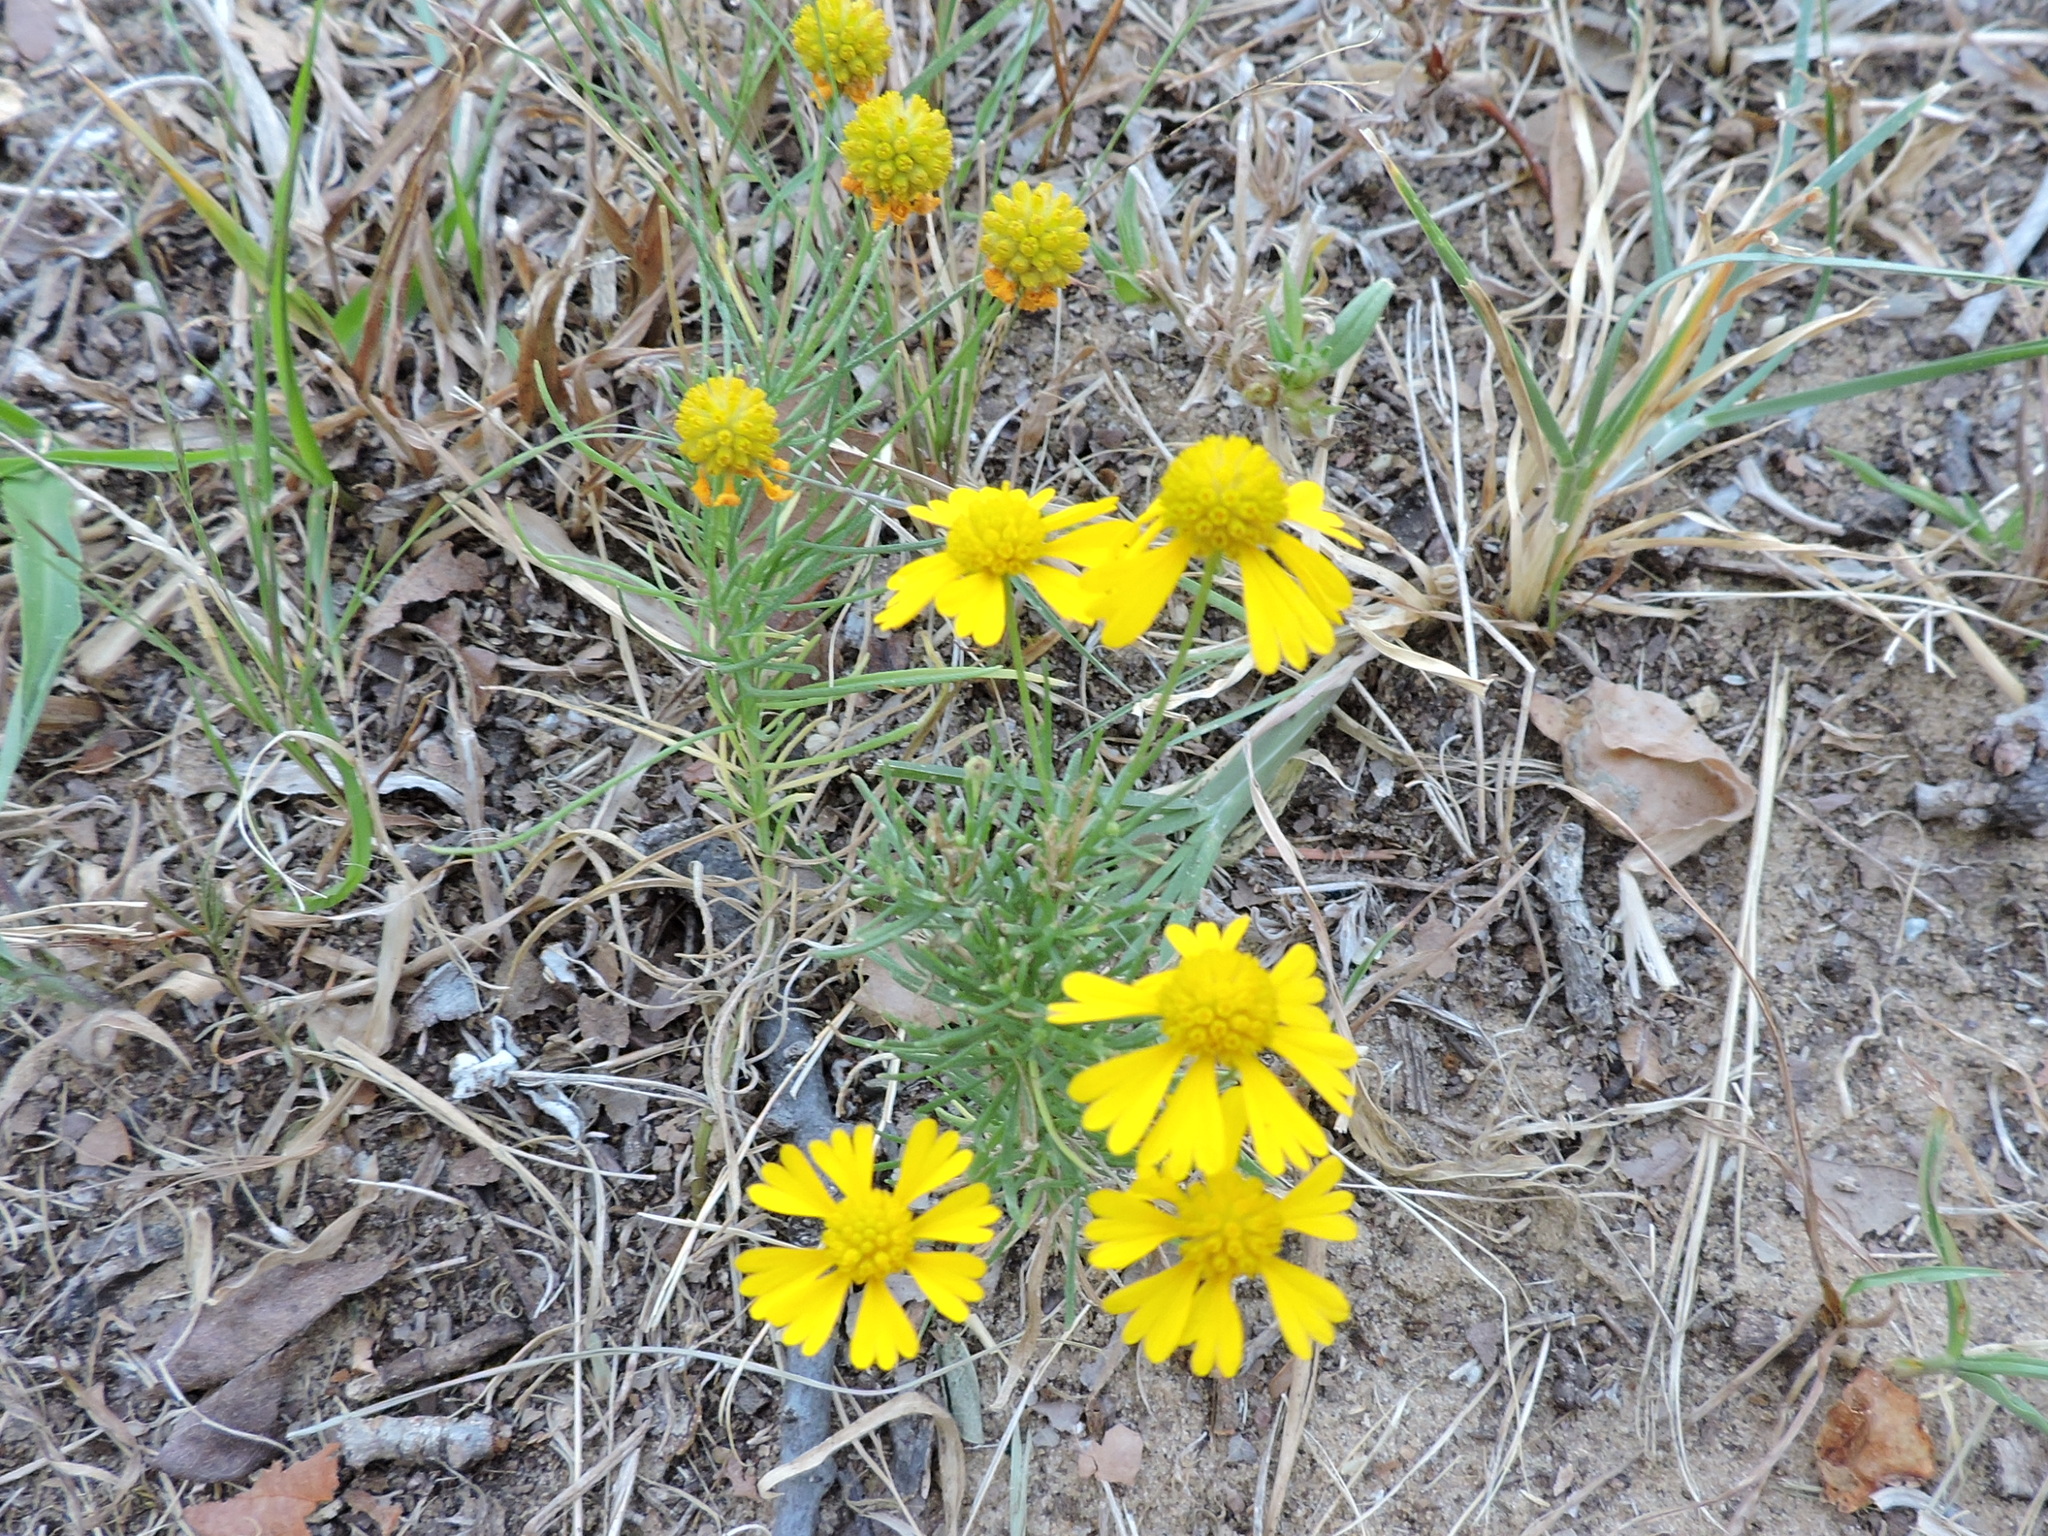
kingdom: Plantae
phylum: Tracheophyta
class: Magnoliopsida
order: Asterales
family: Asteraceae
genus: Helenium
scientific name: Helenium amarum
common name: Bitter sneezeweed
